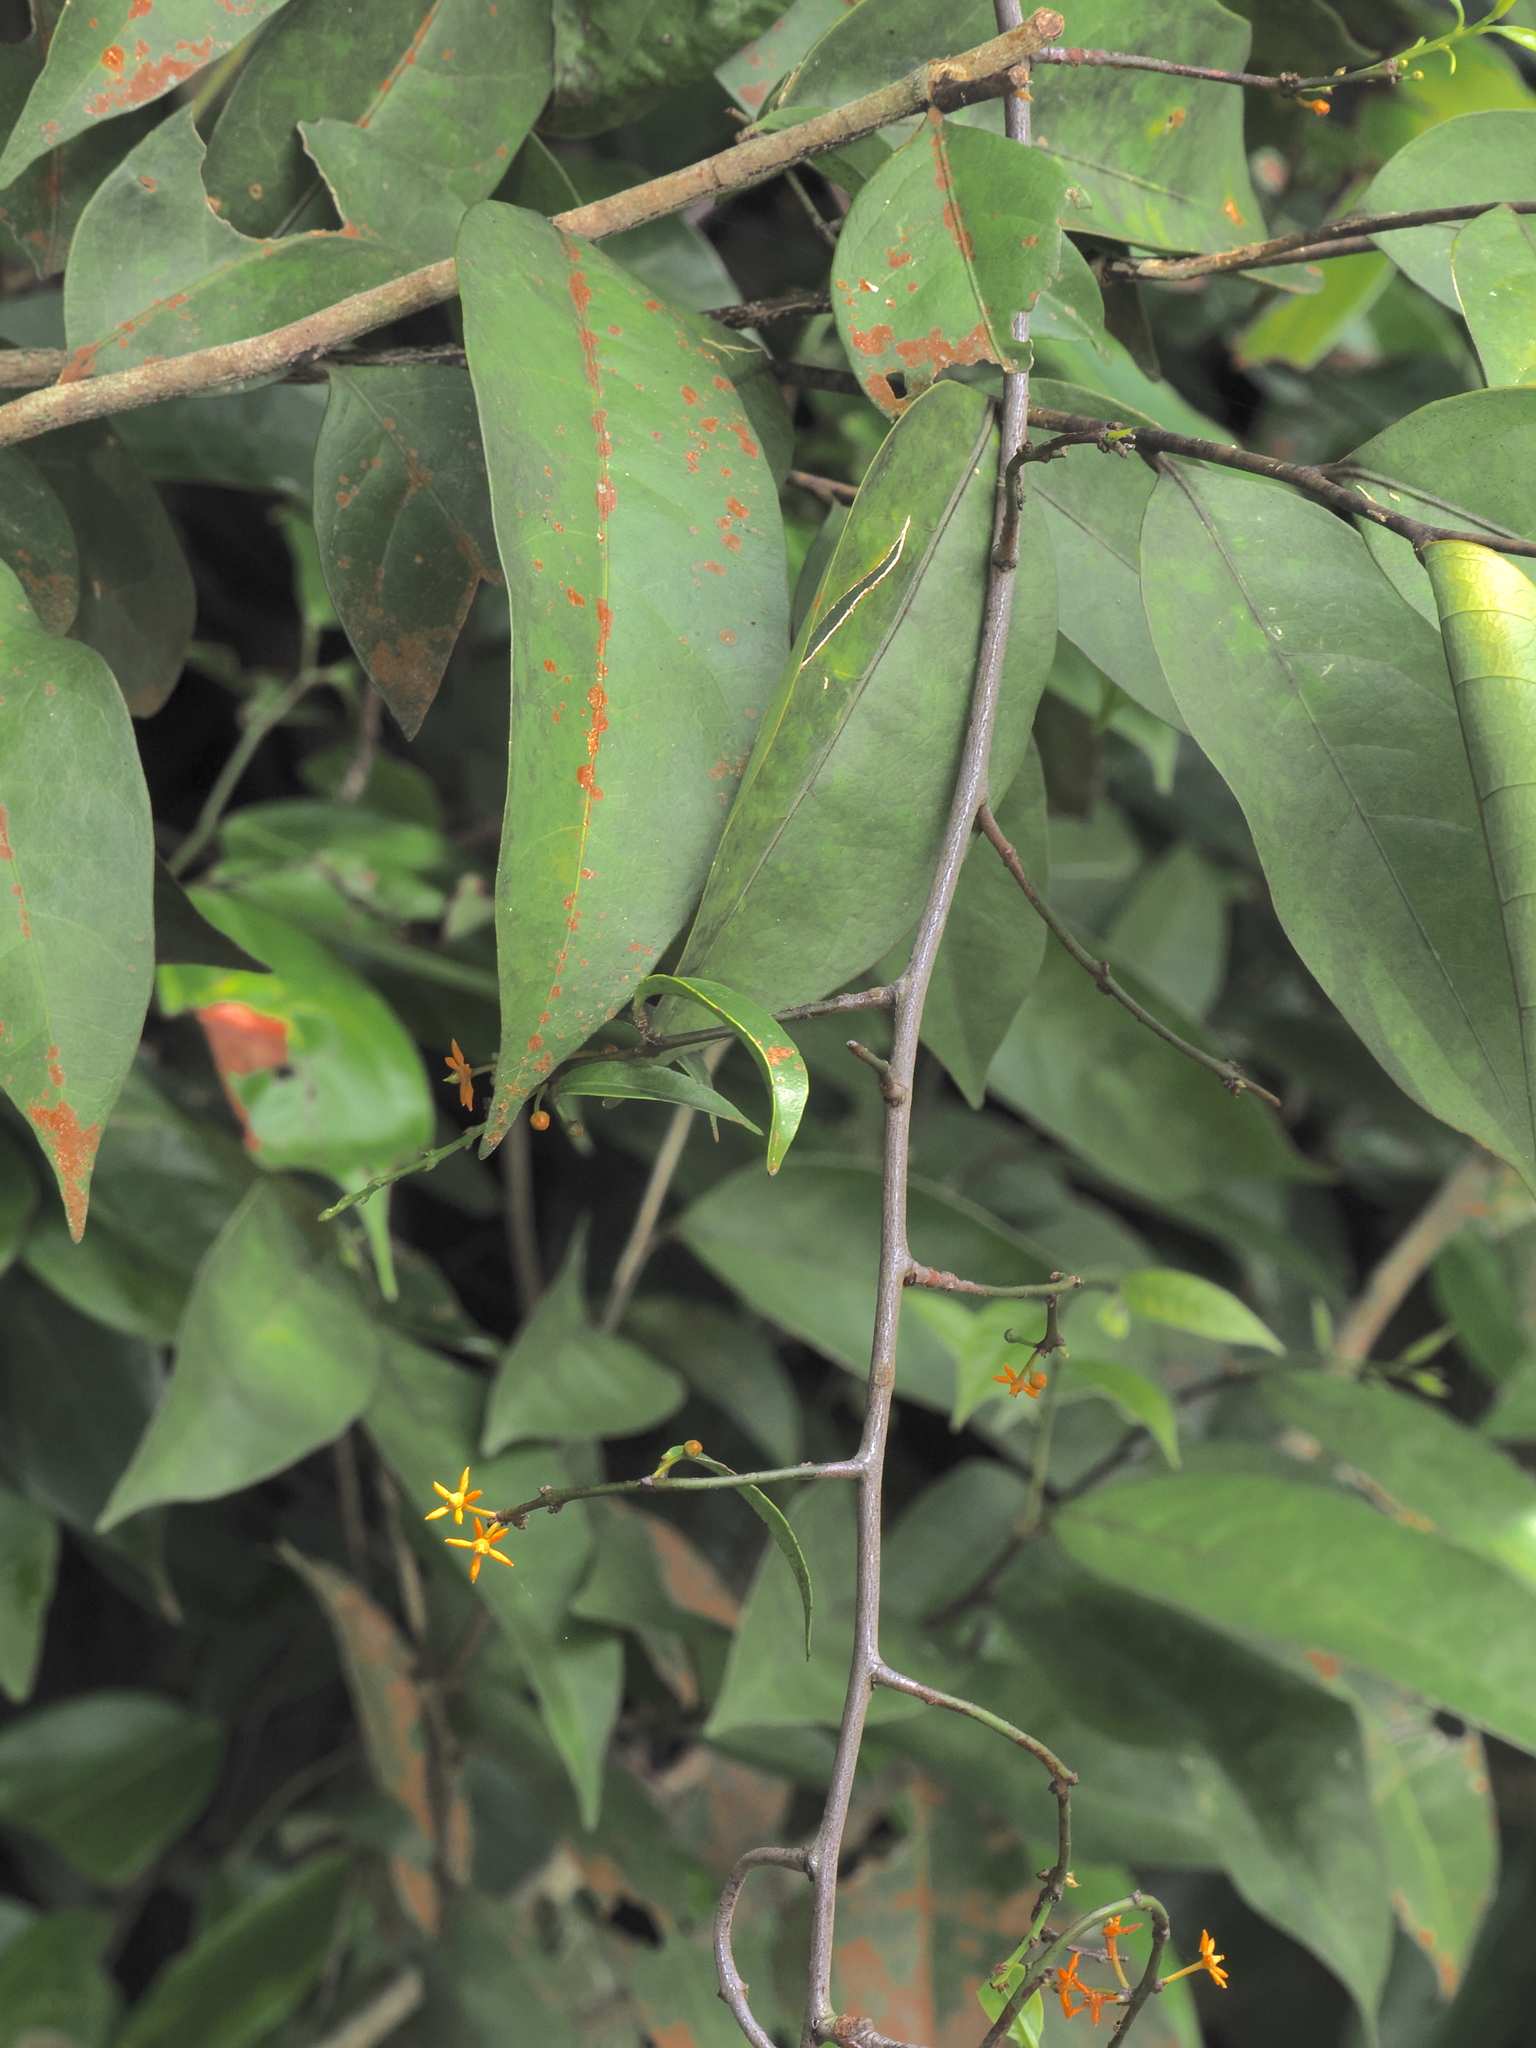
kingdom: Plantae
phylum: Tracheophyta
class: Magnoliopsida
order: Celastrales
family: Celastraceae
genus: Salacia
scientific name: Salacia viminea
